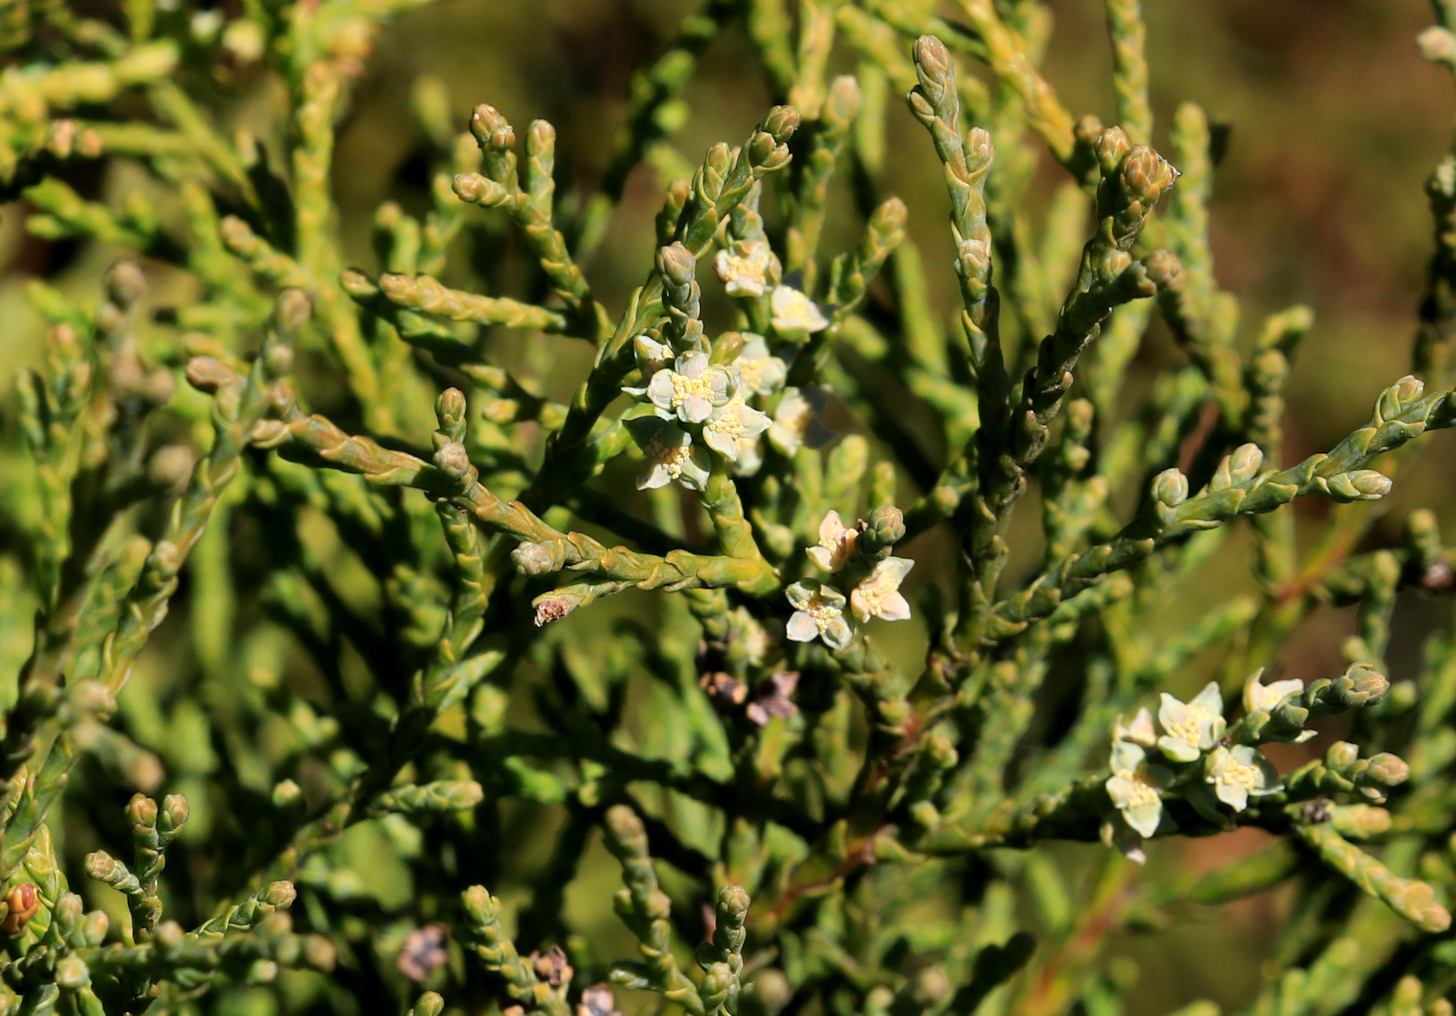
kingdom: Plantae
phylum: Tracheophyta
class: Pinopsida
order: Pinales
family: Cupressaceae
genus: Widdringtonia
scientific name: Widdringtonia nodiflora
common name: Cape cypress
